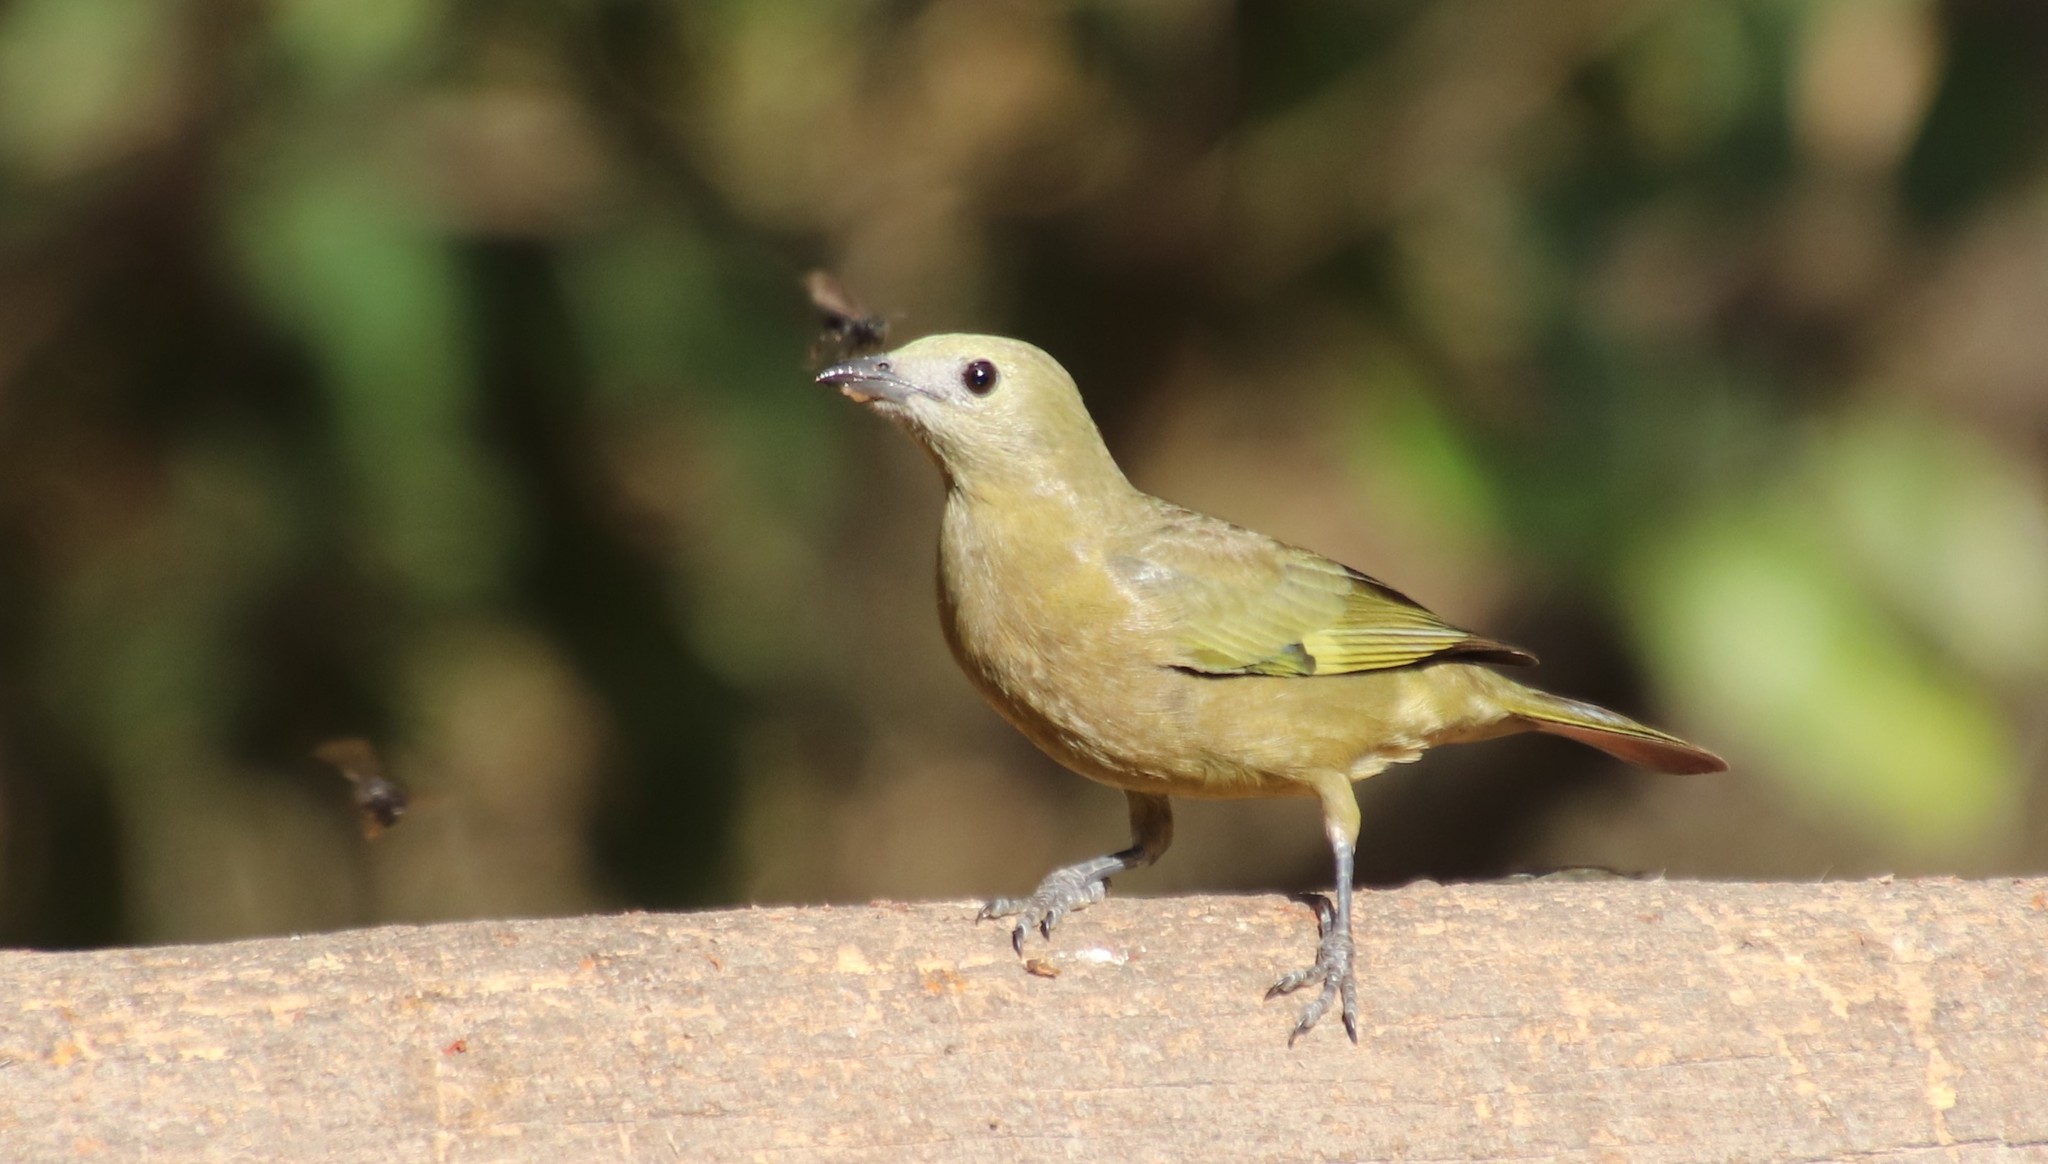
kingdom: Animalia
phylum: Chordata
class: Aves
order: Passeriformes
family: Thraupidae
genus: Thraupis
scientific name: Thraupis palmarum
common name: Palm tanager
